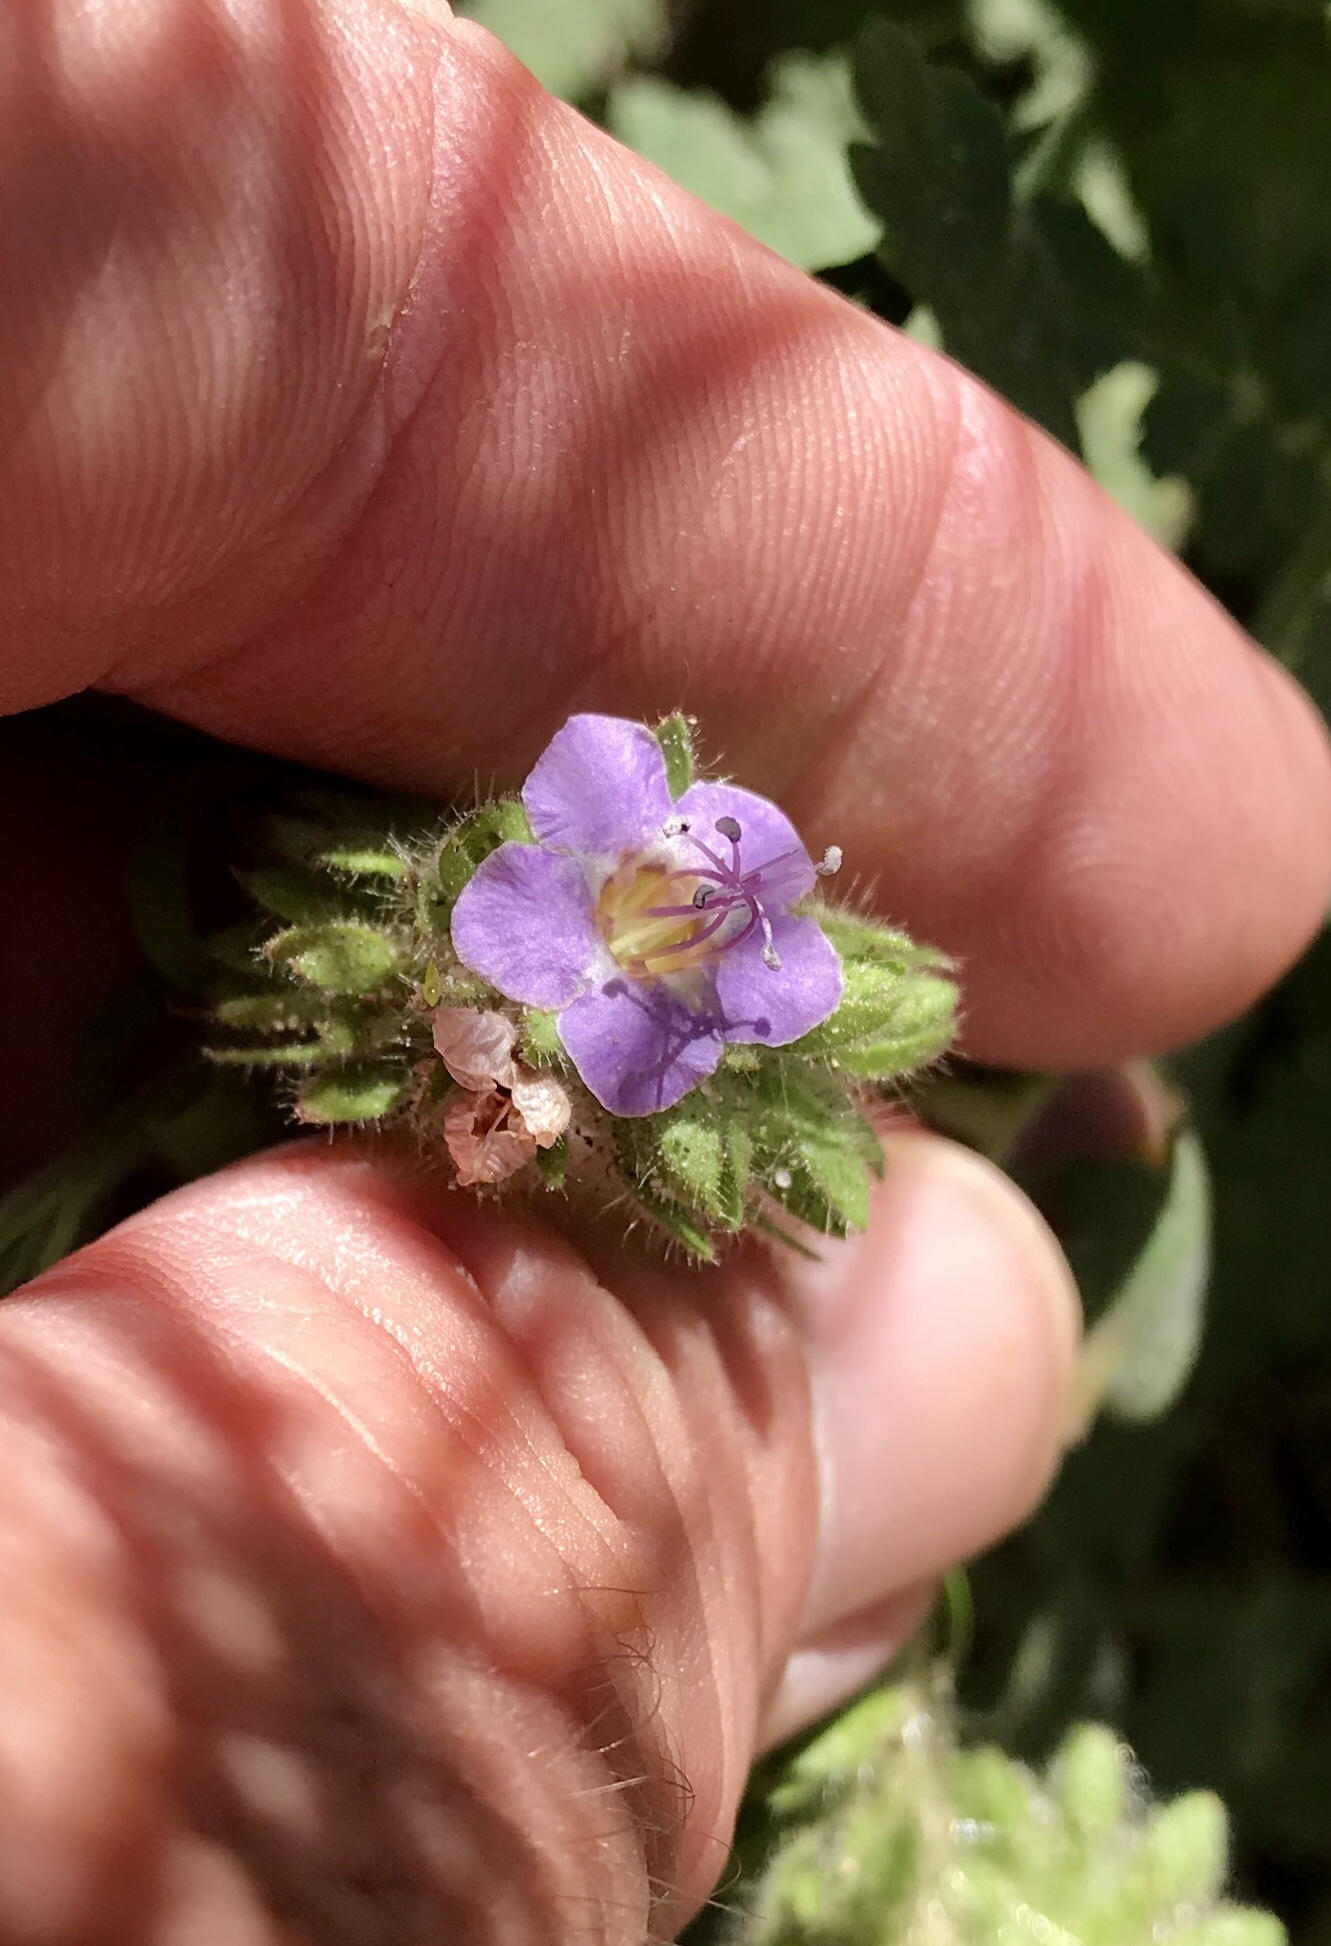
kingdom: Plantae
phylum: Tracheophyta
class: Magnoliopsida
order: Boraginales
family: Hydrophyllaceae
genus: Phacelia
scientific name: Phacelia ramosissima
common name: Branching phacelia
